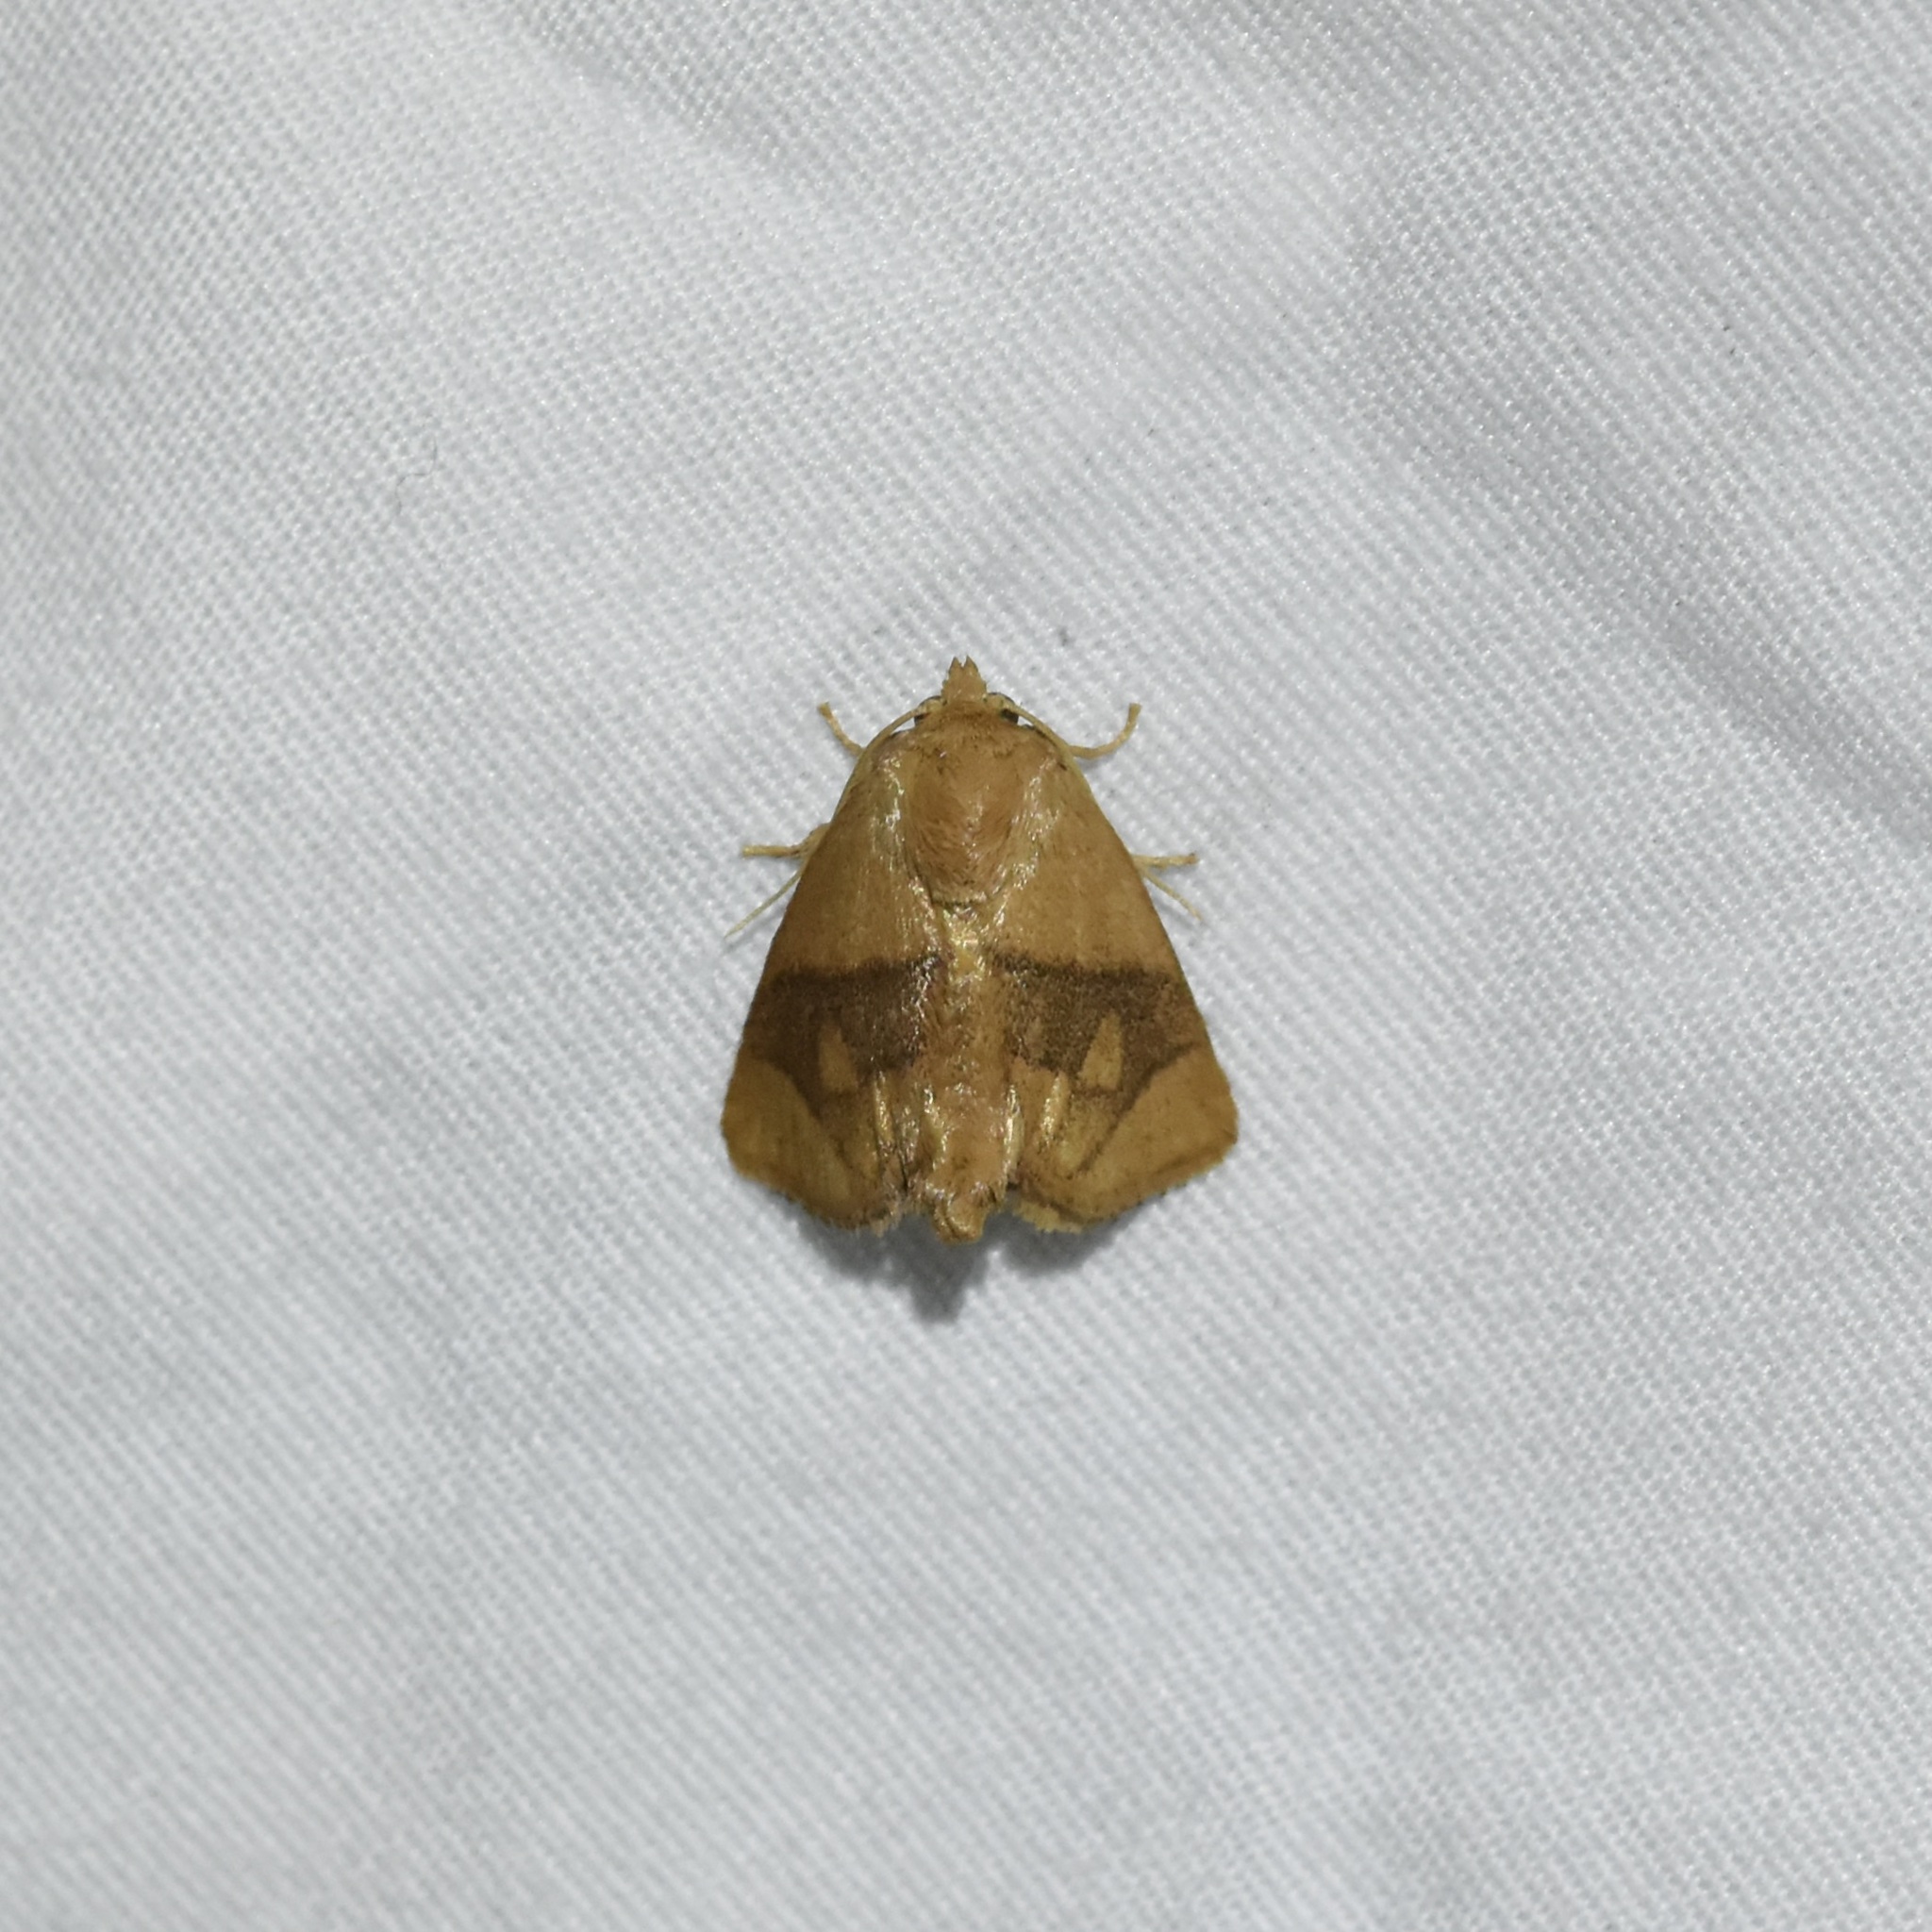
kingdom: Animalia
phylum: Arthropoda
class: Insecta
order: Lepidoptera
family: Limacodidae
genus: Apoda
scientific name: Apoda y-inversa
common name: Yellow-collared slug moth
